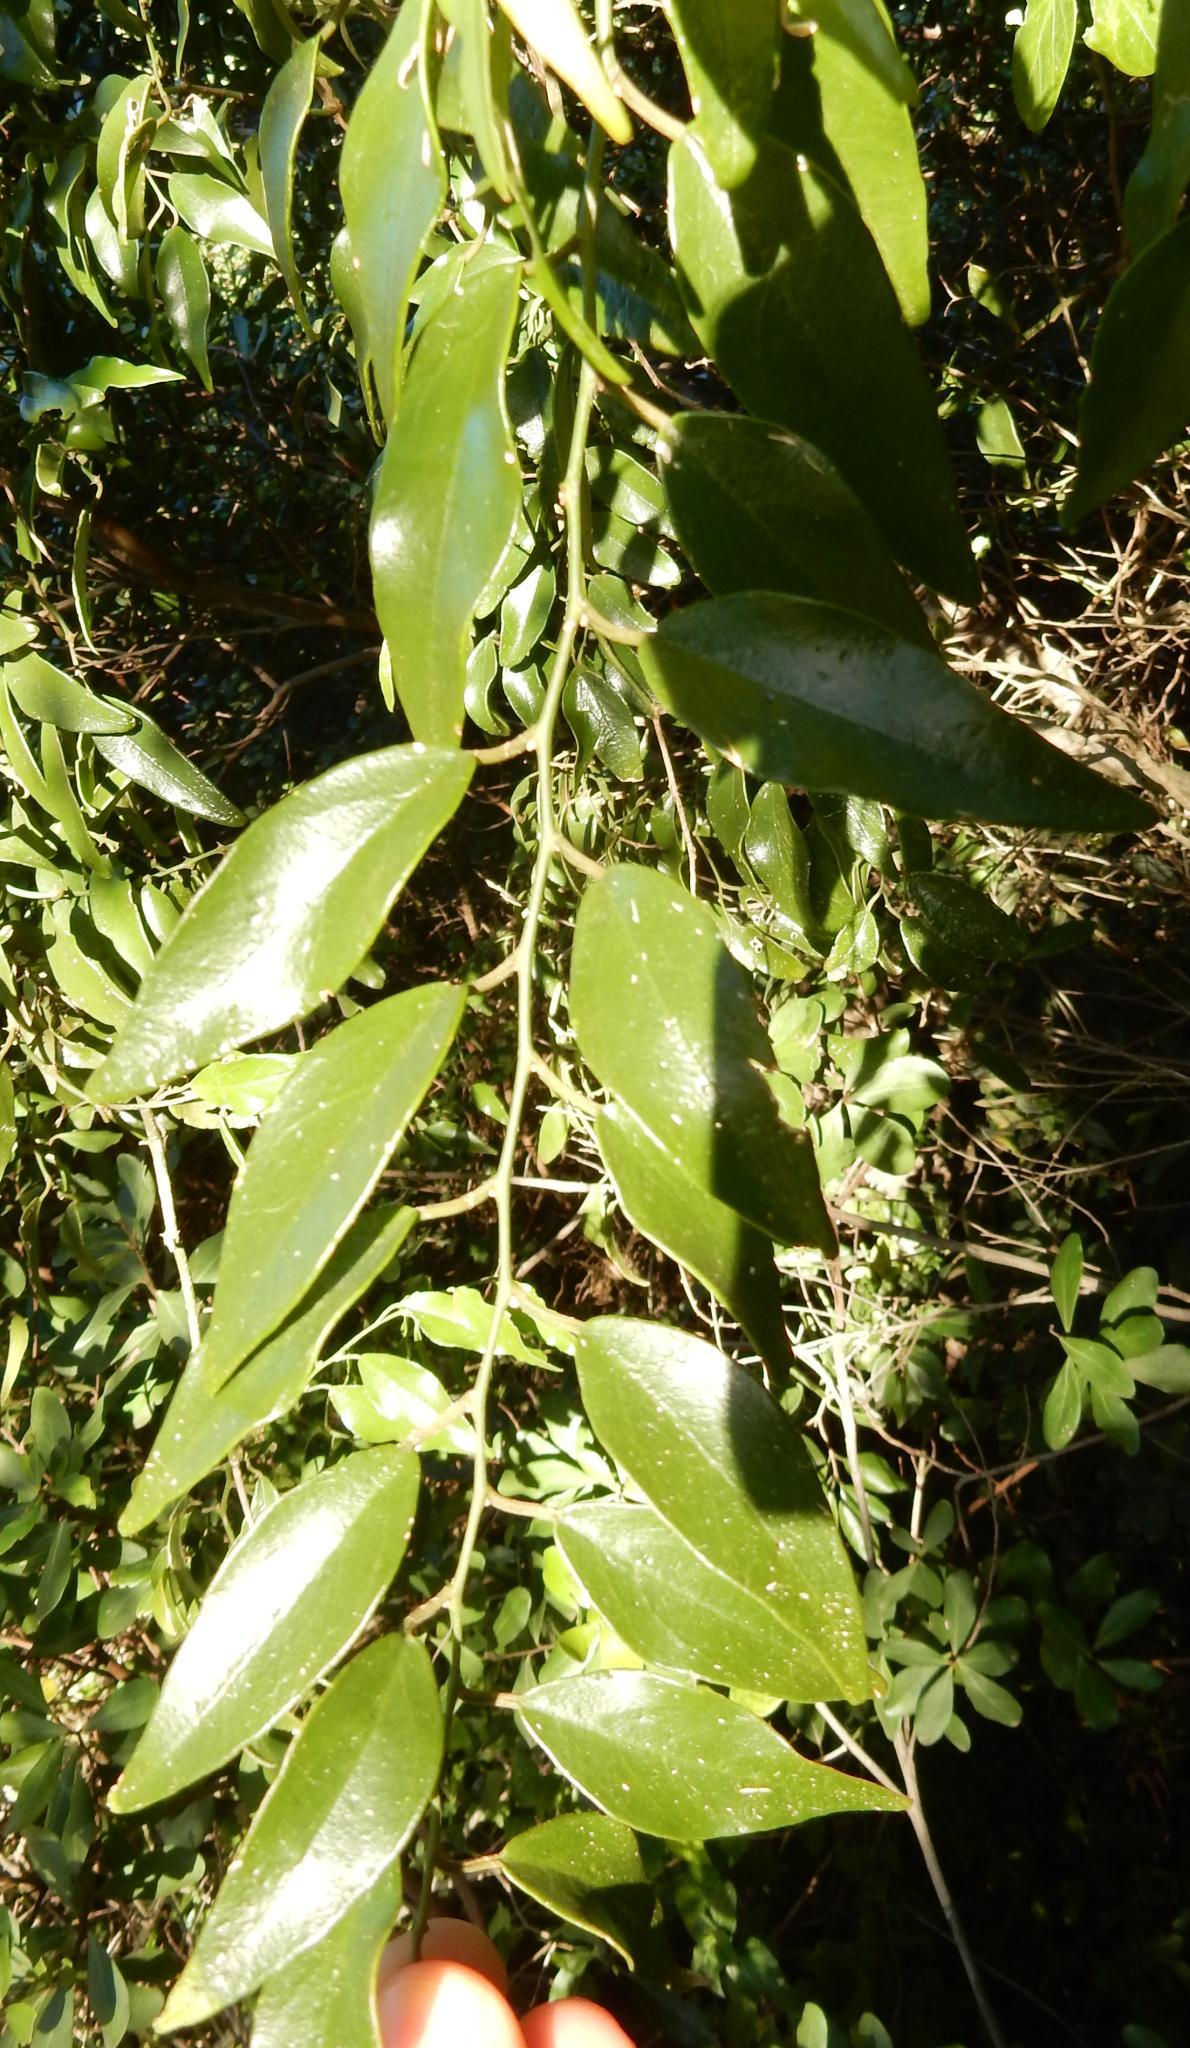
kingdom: Plantae
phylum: Tracheophyta
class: Magnoliopsida
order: Brassicales
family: Capparaceae
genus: Capparis
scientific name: Capparis fascicularis
